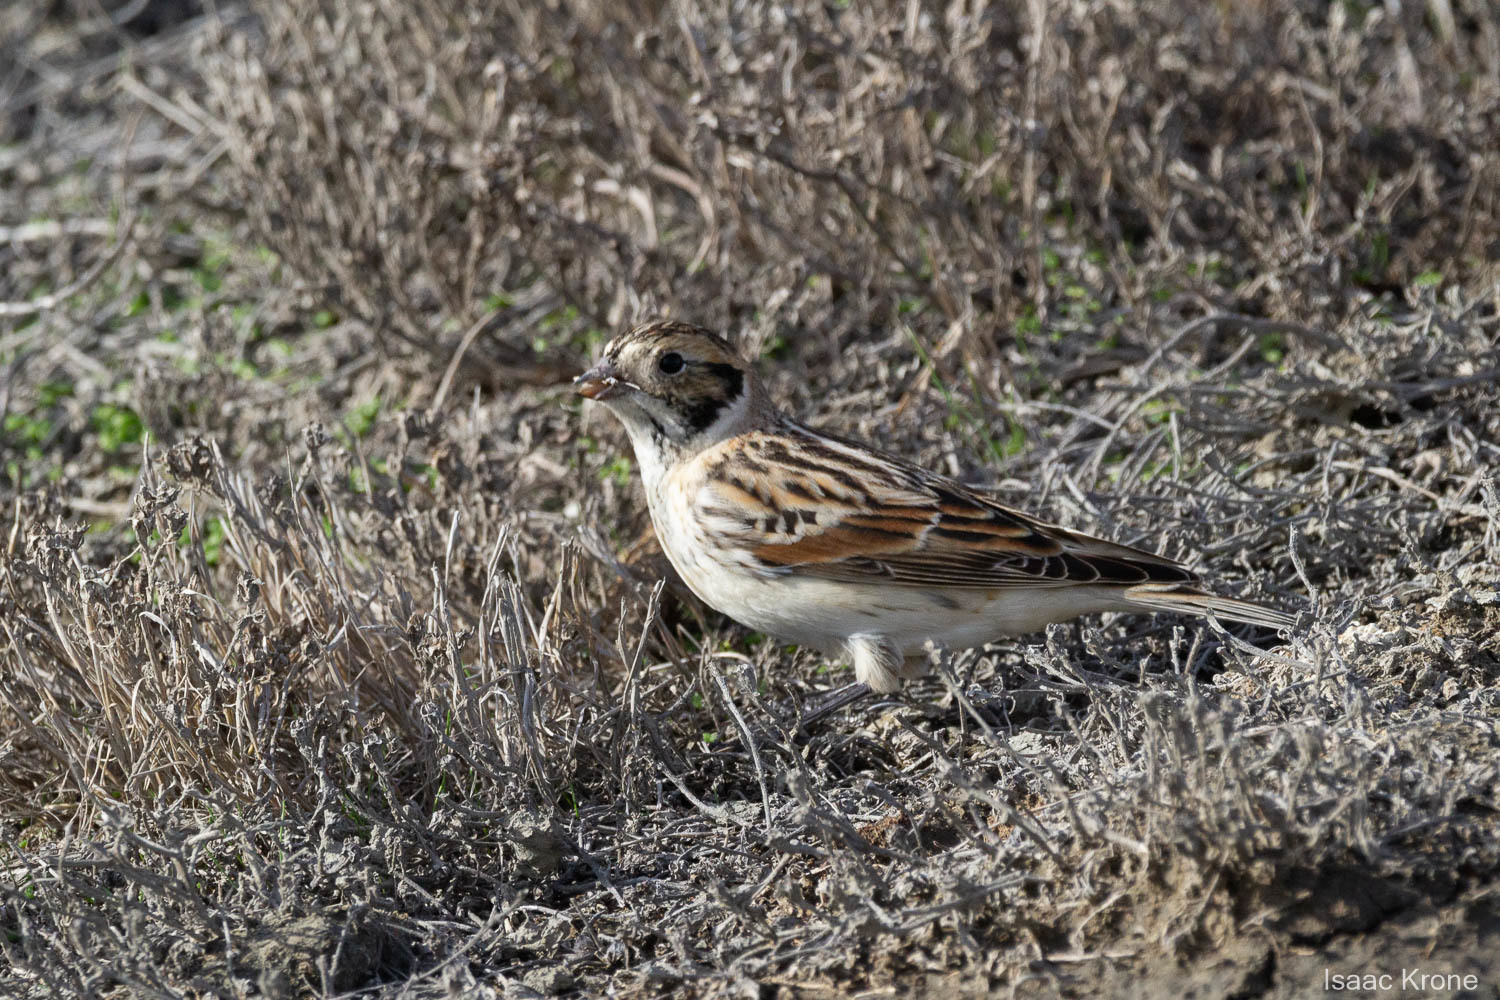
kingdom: Animalia
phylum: Chordata
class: Aves
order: Passeriformes
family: Calcariidae
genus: Calcarius
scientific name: Calcarius lapponicus
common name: Lapland longspur
